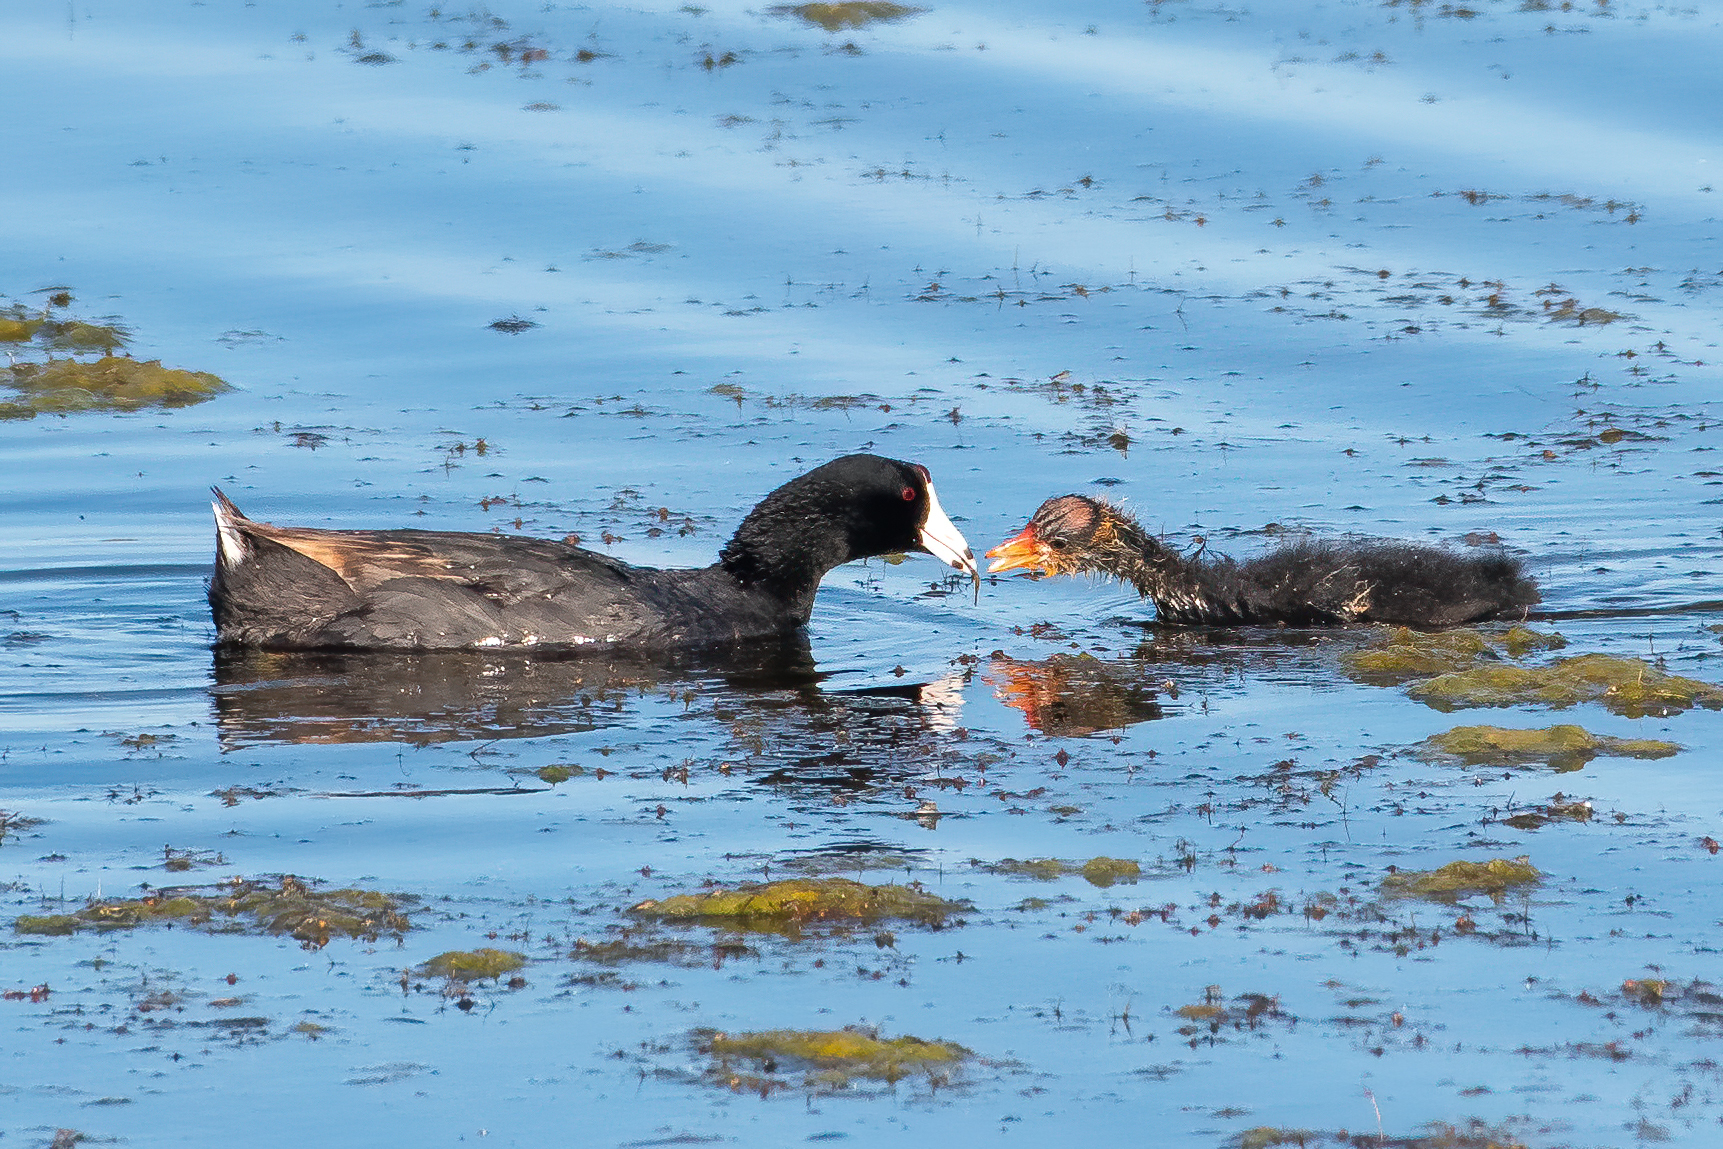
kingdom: Animalia
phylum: Chordata
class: Aves
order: Gruiformes
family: Rallidae
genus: Fulica
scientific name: Fulica americana
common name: American coot
